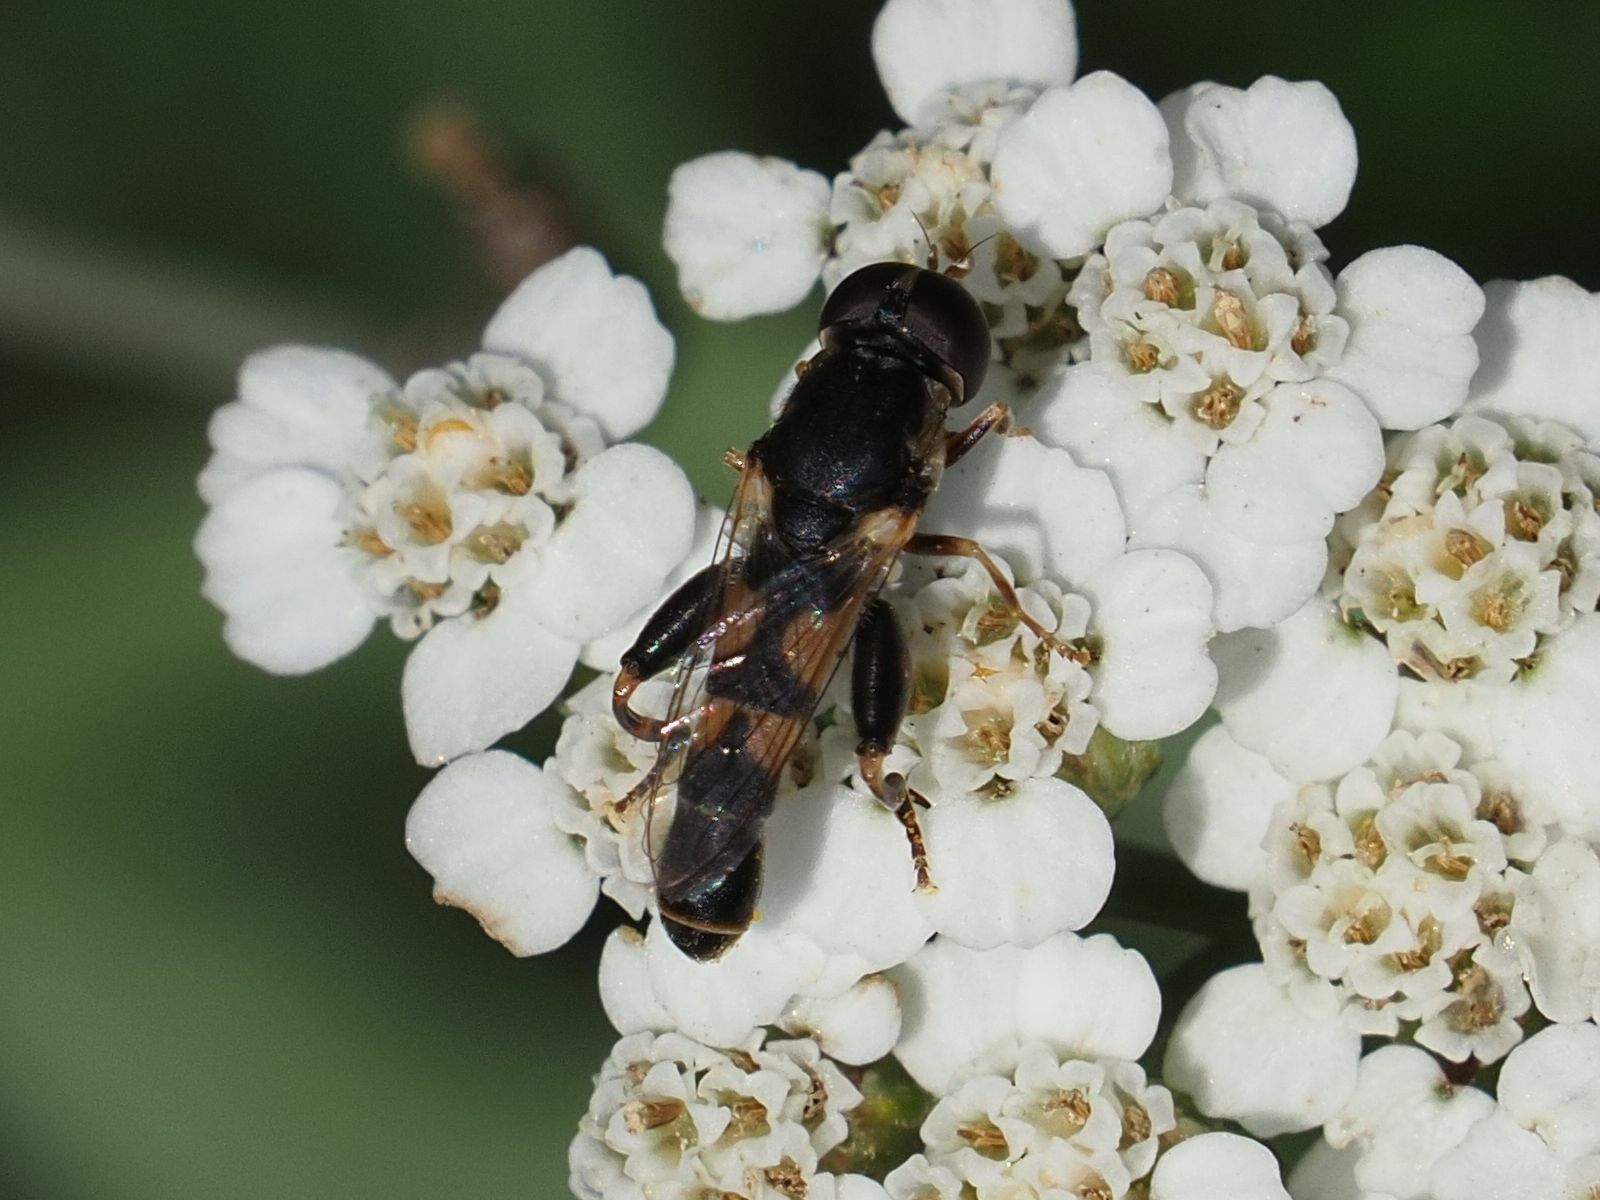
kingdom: Animalia
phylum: Arthropoda
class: Insecta
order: Diptera
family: Syrphidae
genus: Syritta
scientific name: Syritta pipiens
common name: Hover fly
